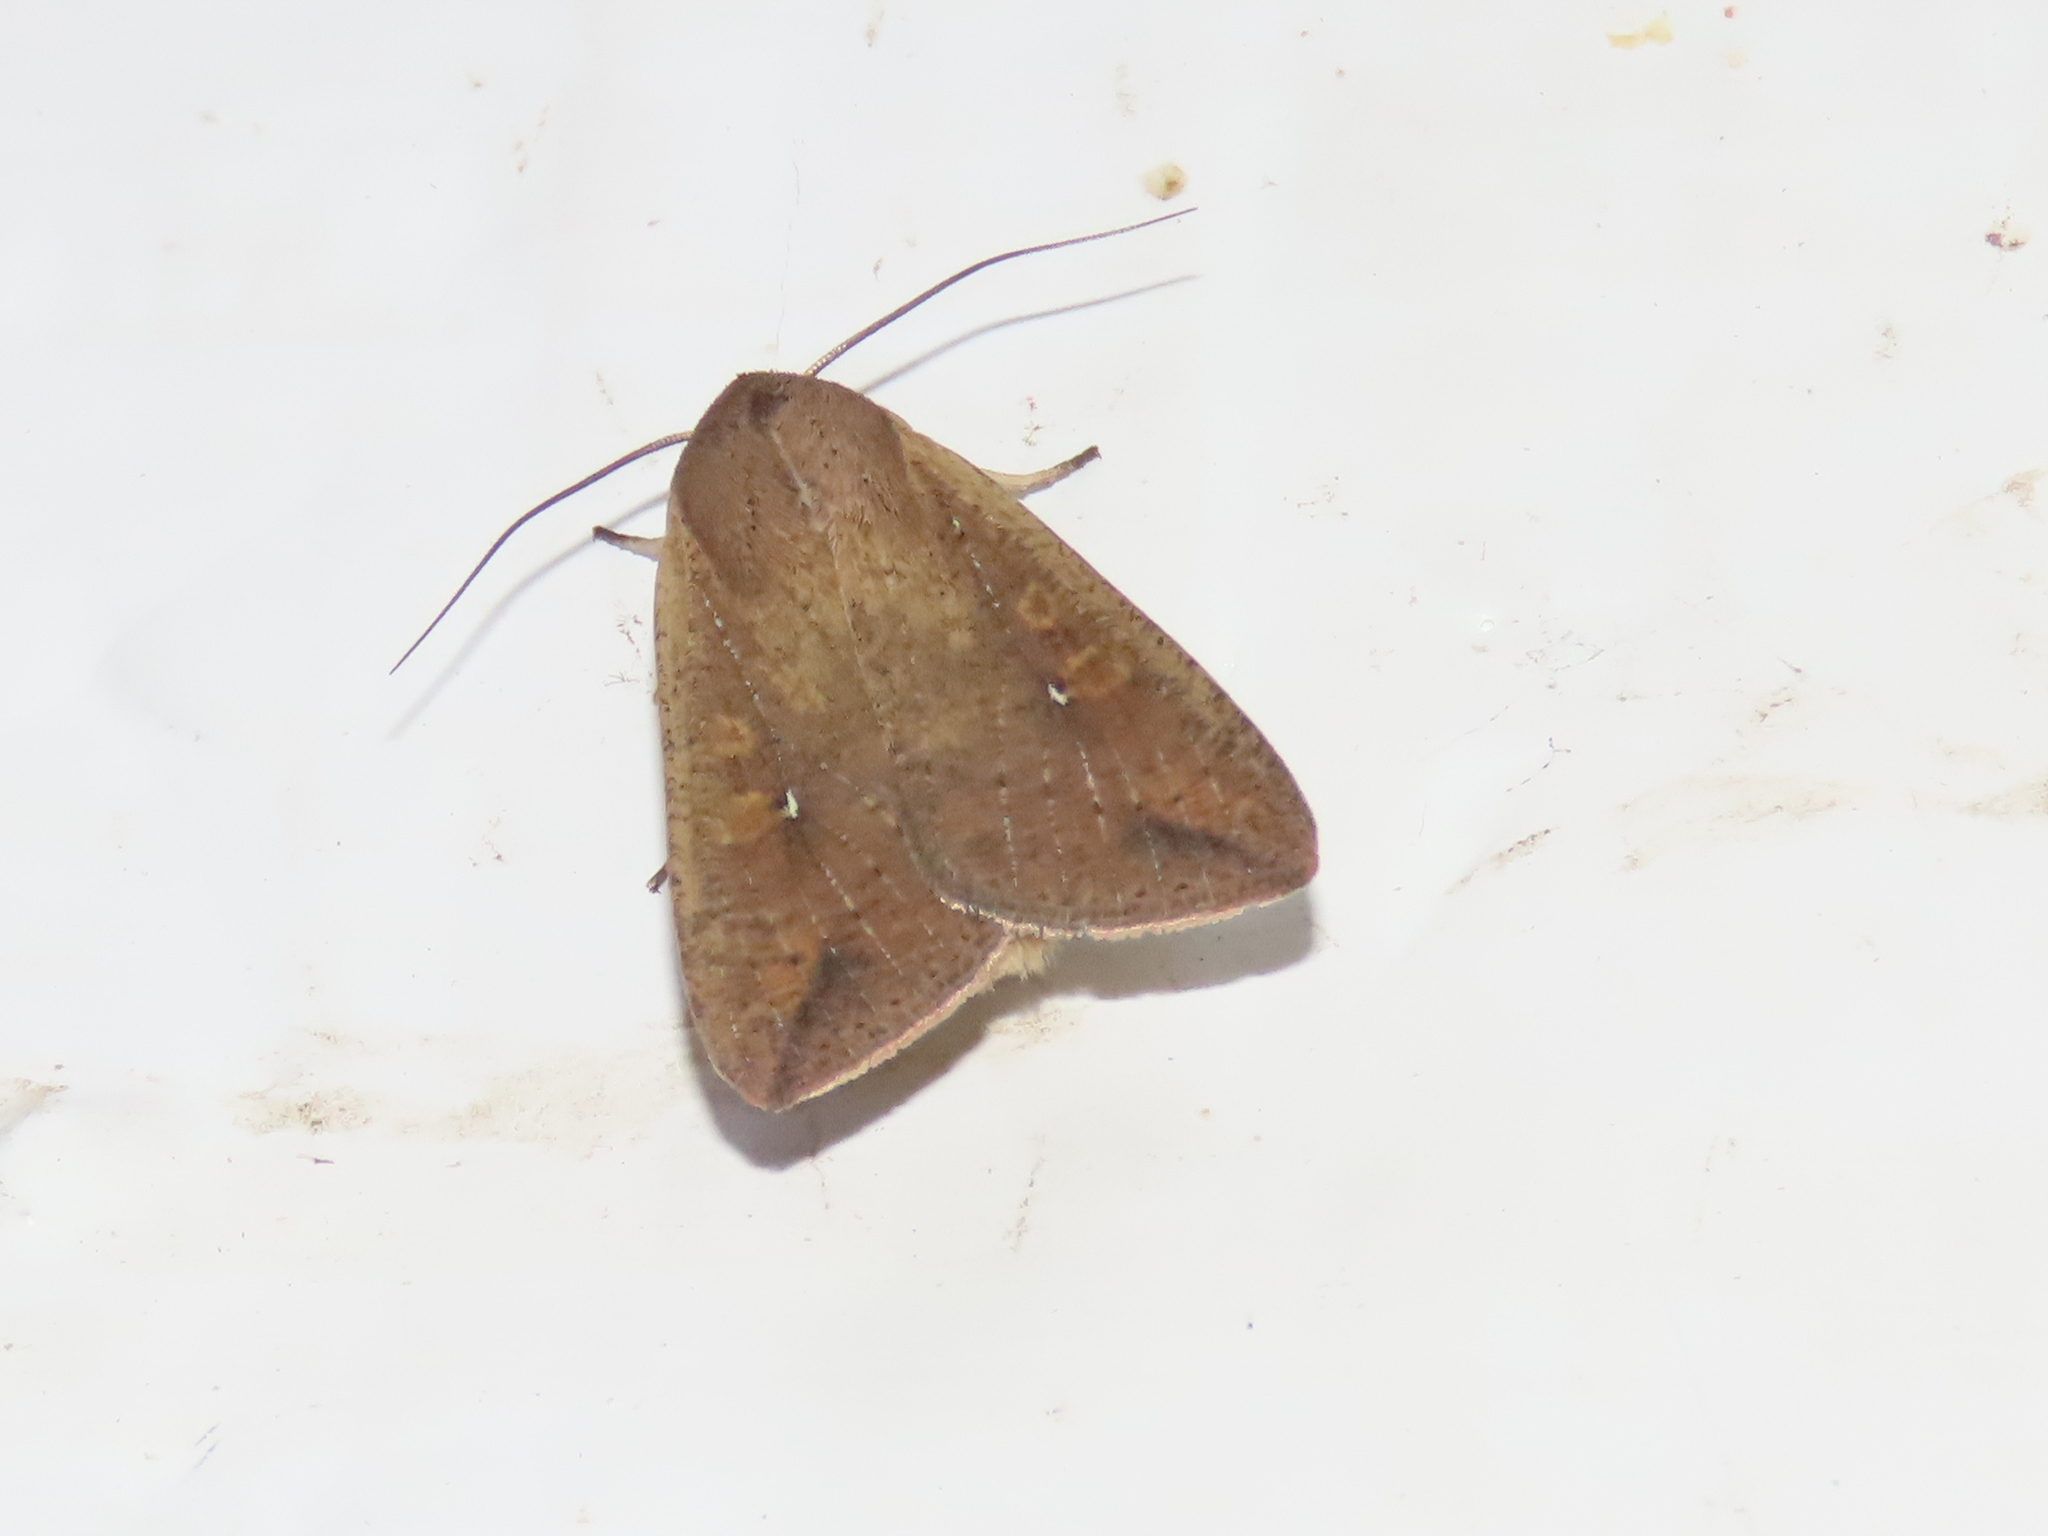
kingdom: Animalia
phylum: Arthropoda
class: Insecta
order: Lepidoptera
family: Noctuidae
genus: Mythimna
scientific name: Mythimna unipuncta
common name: White-speck
